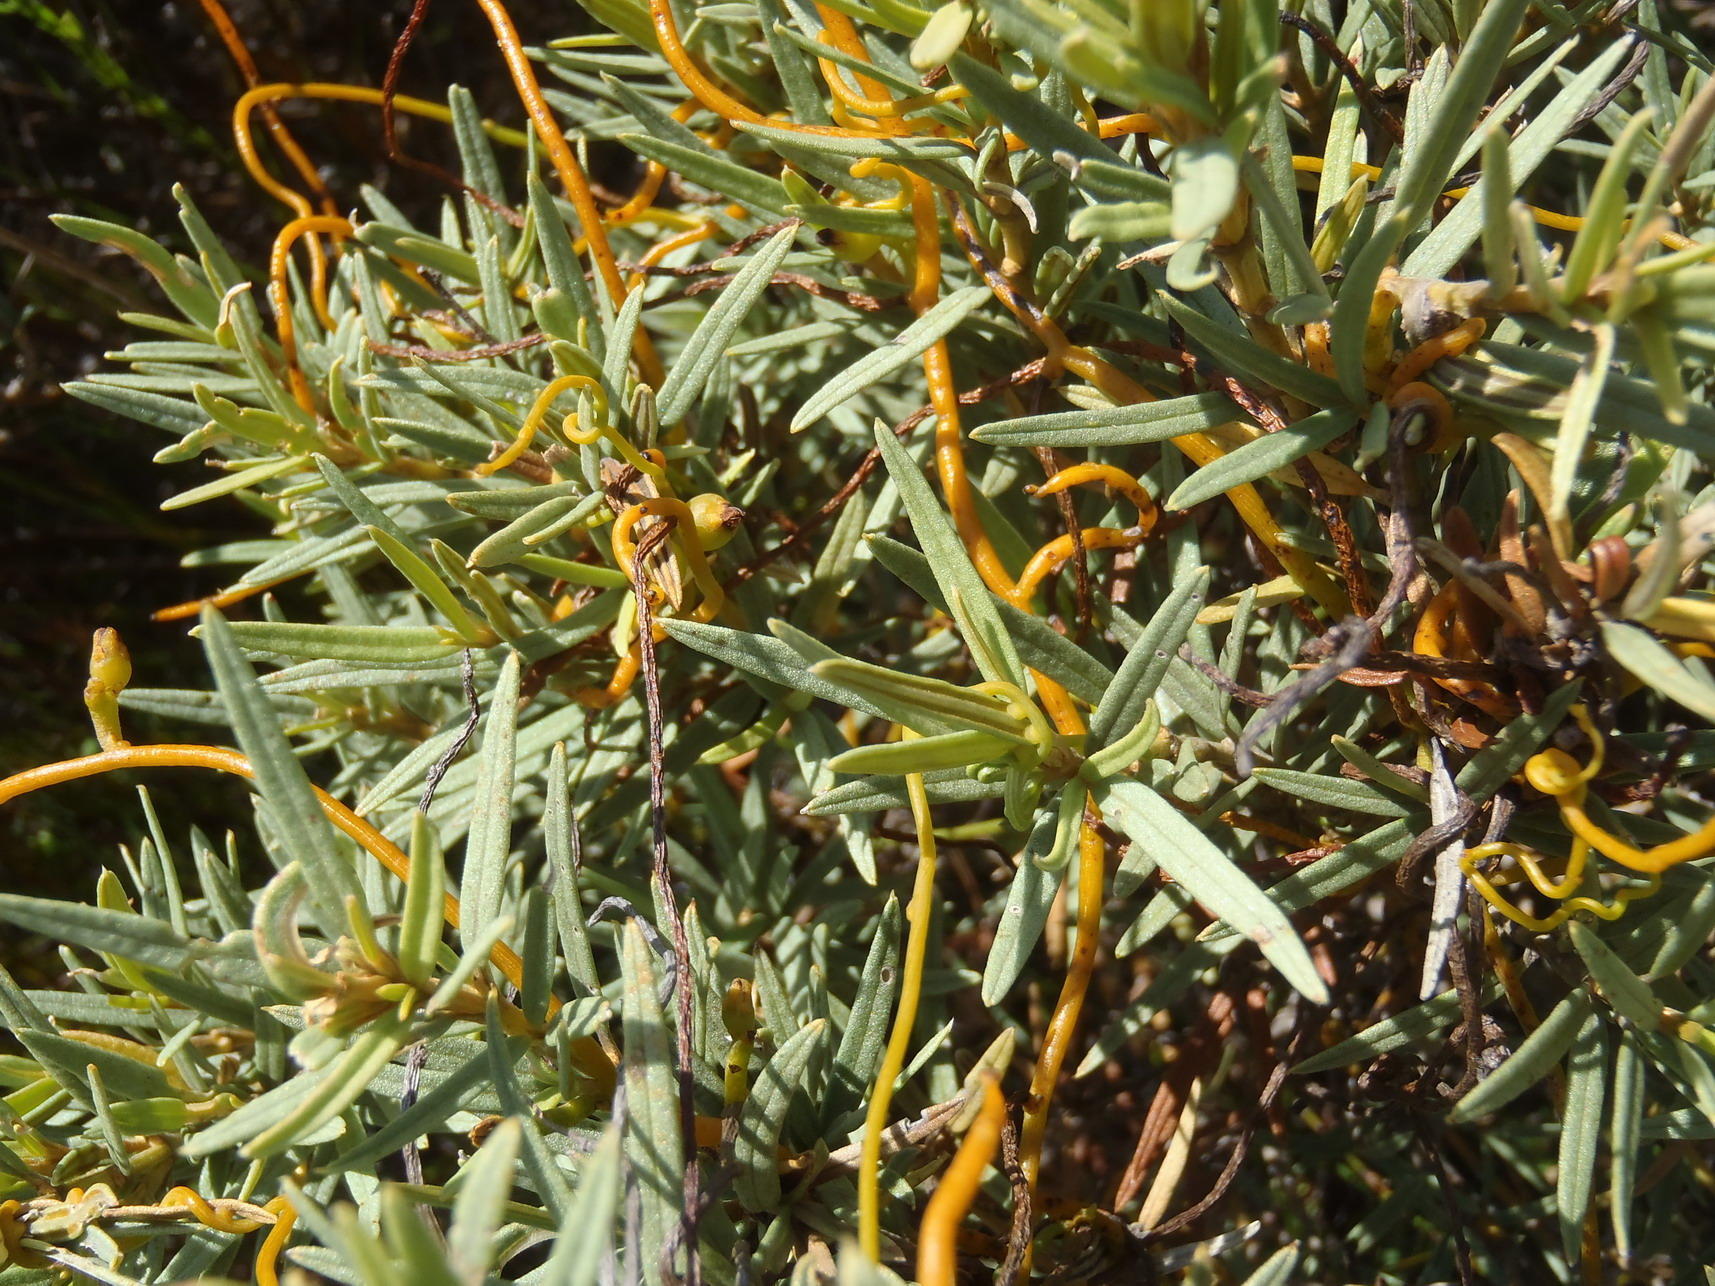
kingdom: Plantae
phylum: Tracheophyta
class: Magnoliopsida
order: Laurales
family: Lauraceae
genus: Cassytha
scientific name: Cassytha ciliolata
